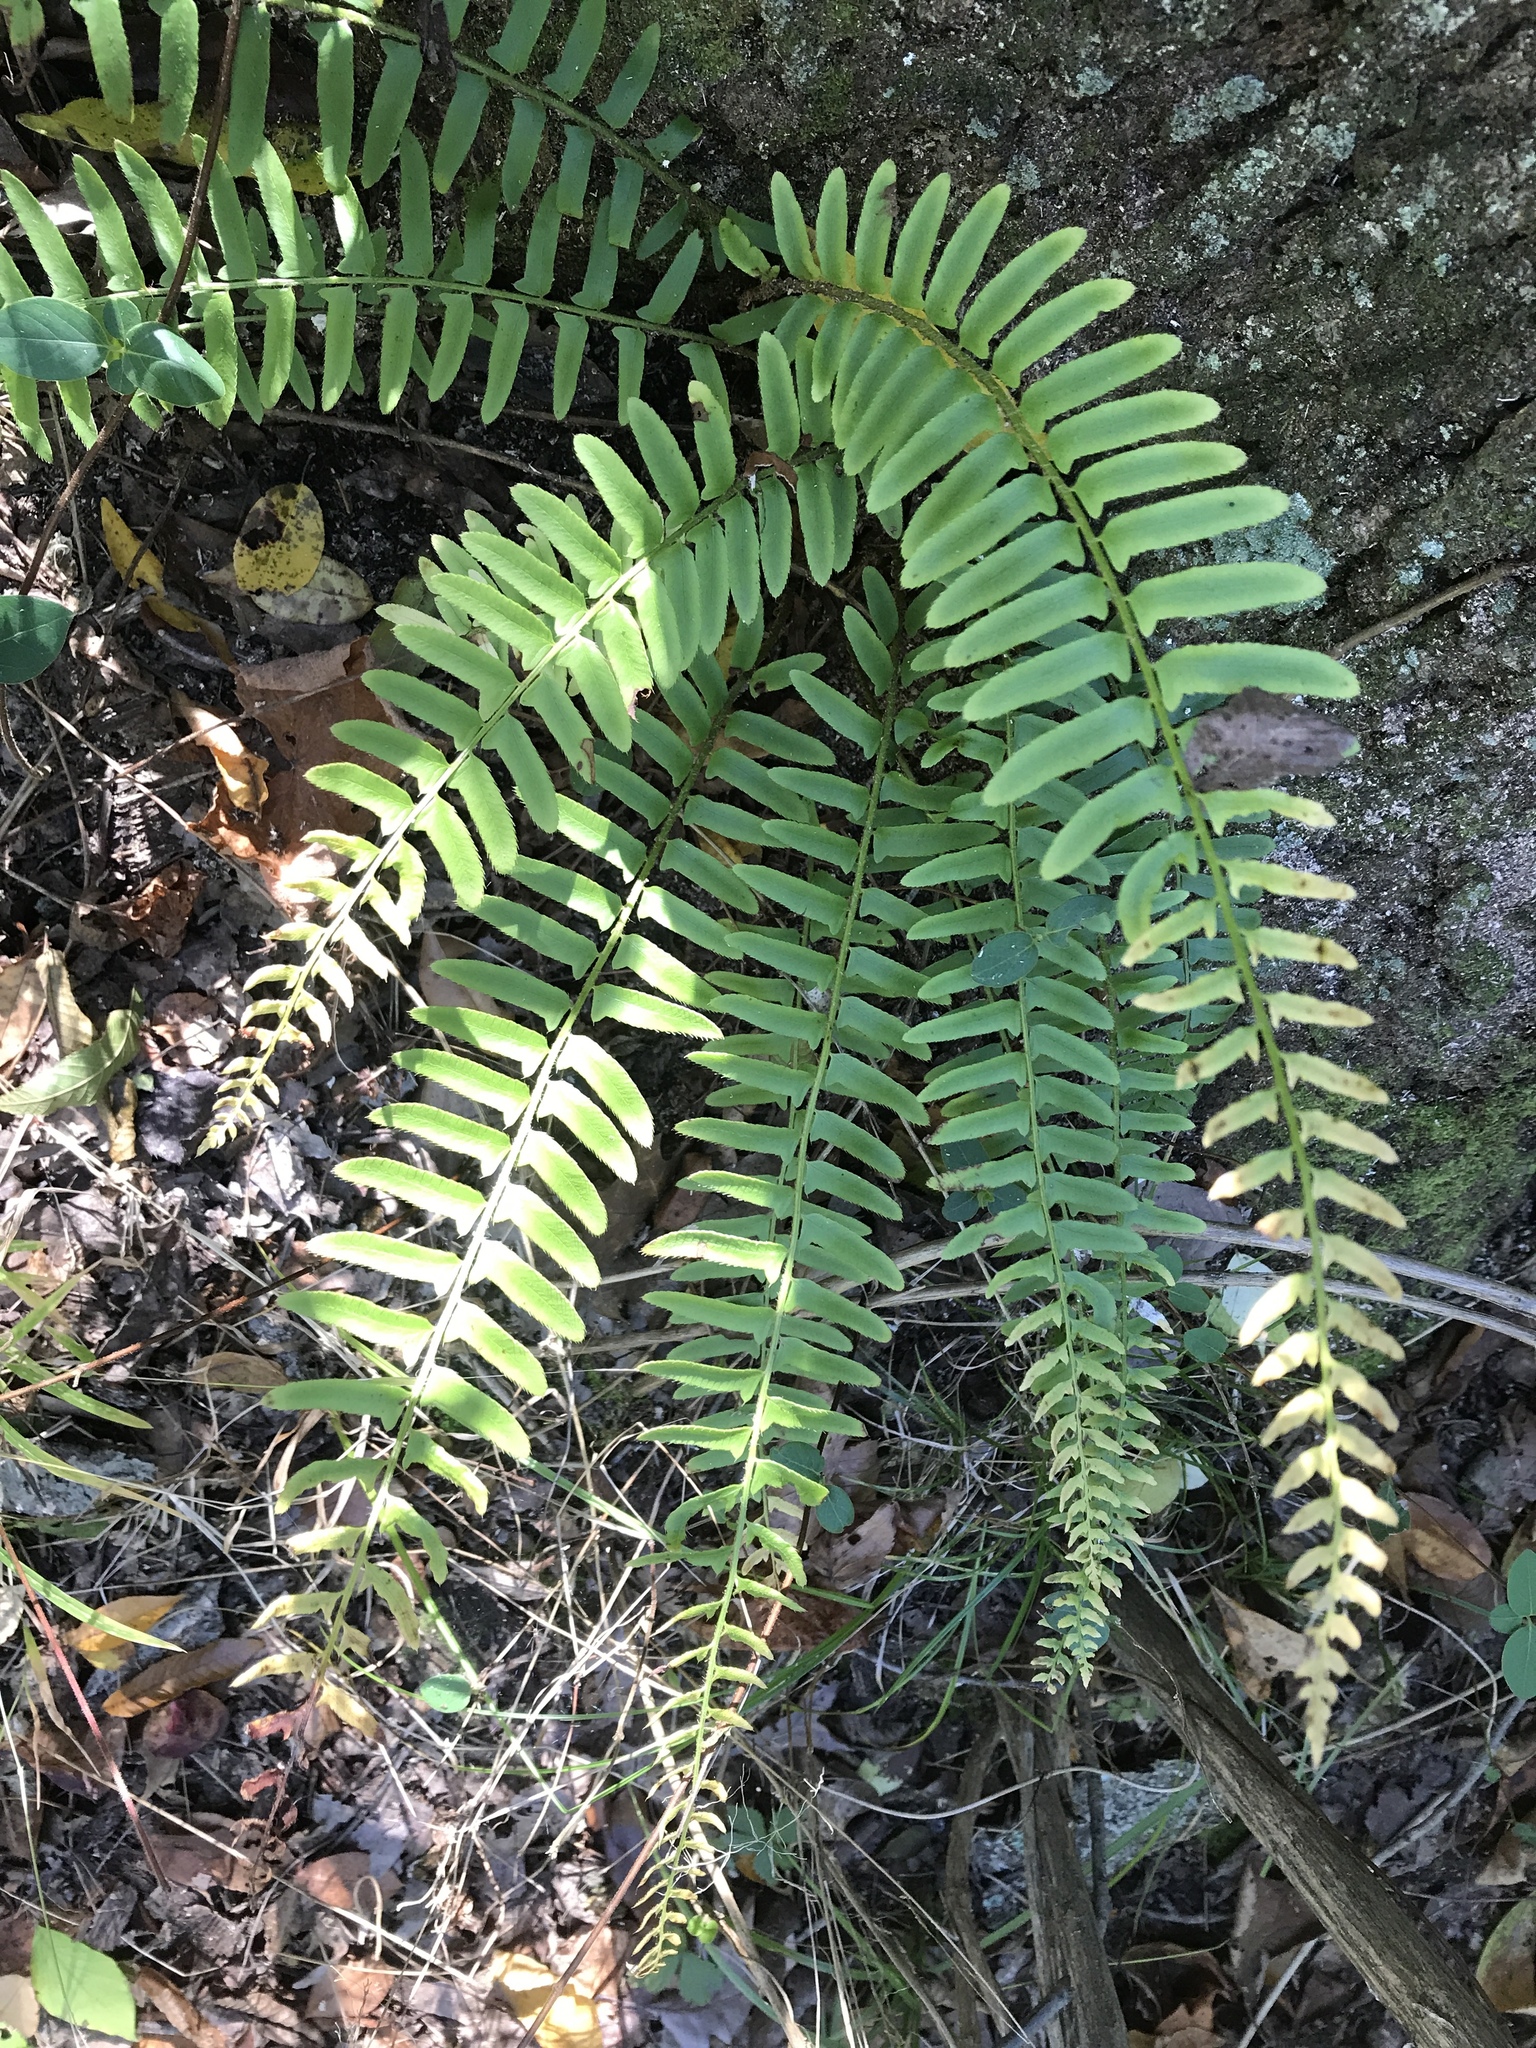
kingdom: Plantae
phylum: Tracheophyta
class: Polypodiopsida
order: Polypodiales
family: Dryopteridaceae
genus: Polystichum
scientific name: Polystichum acrostichoides
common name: Christmas fern
